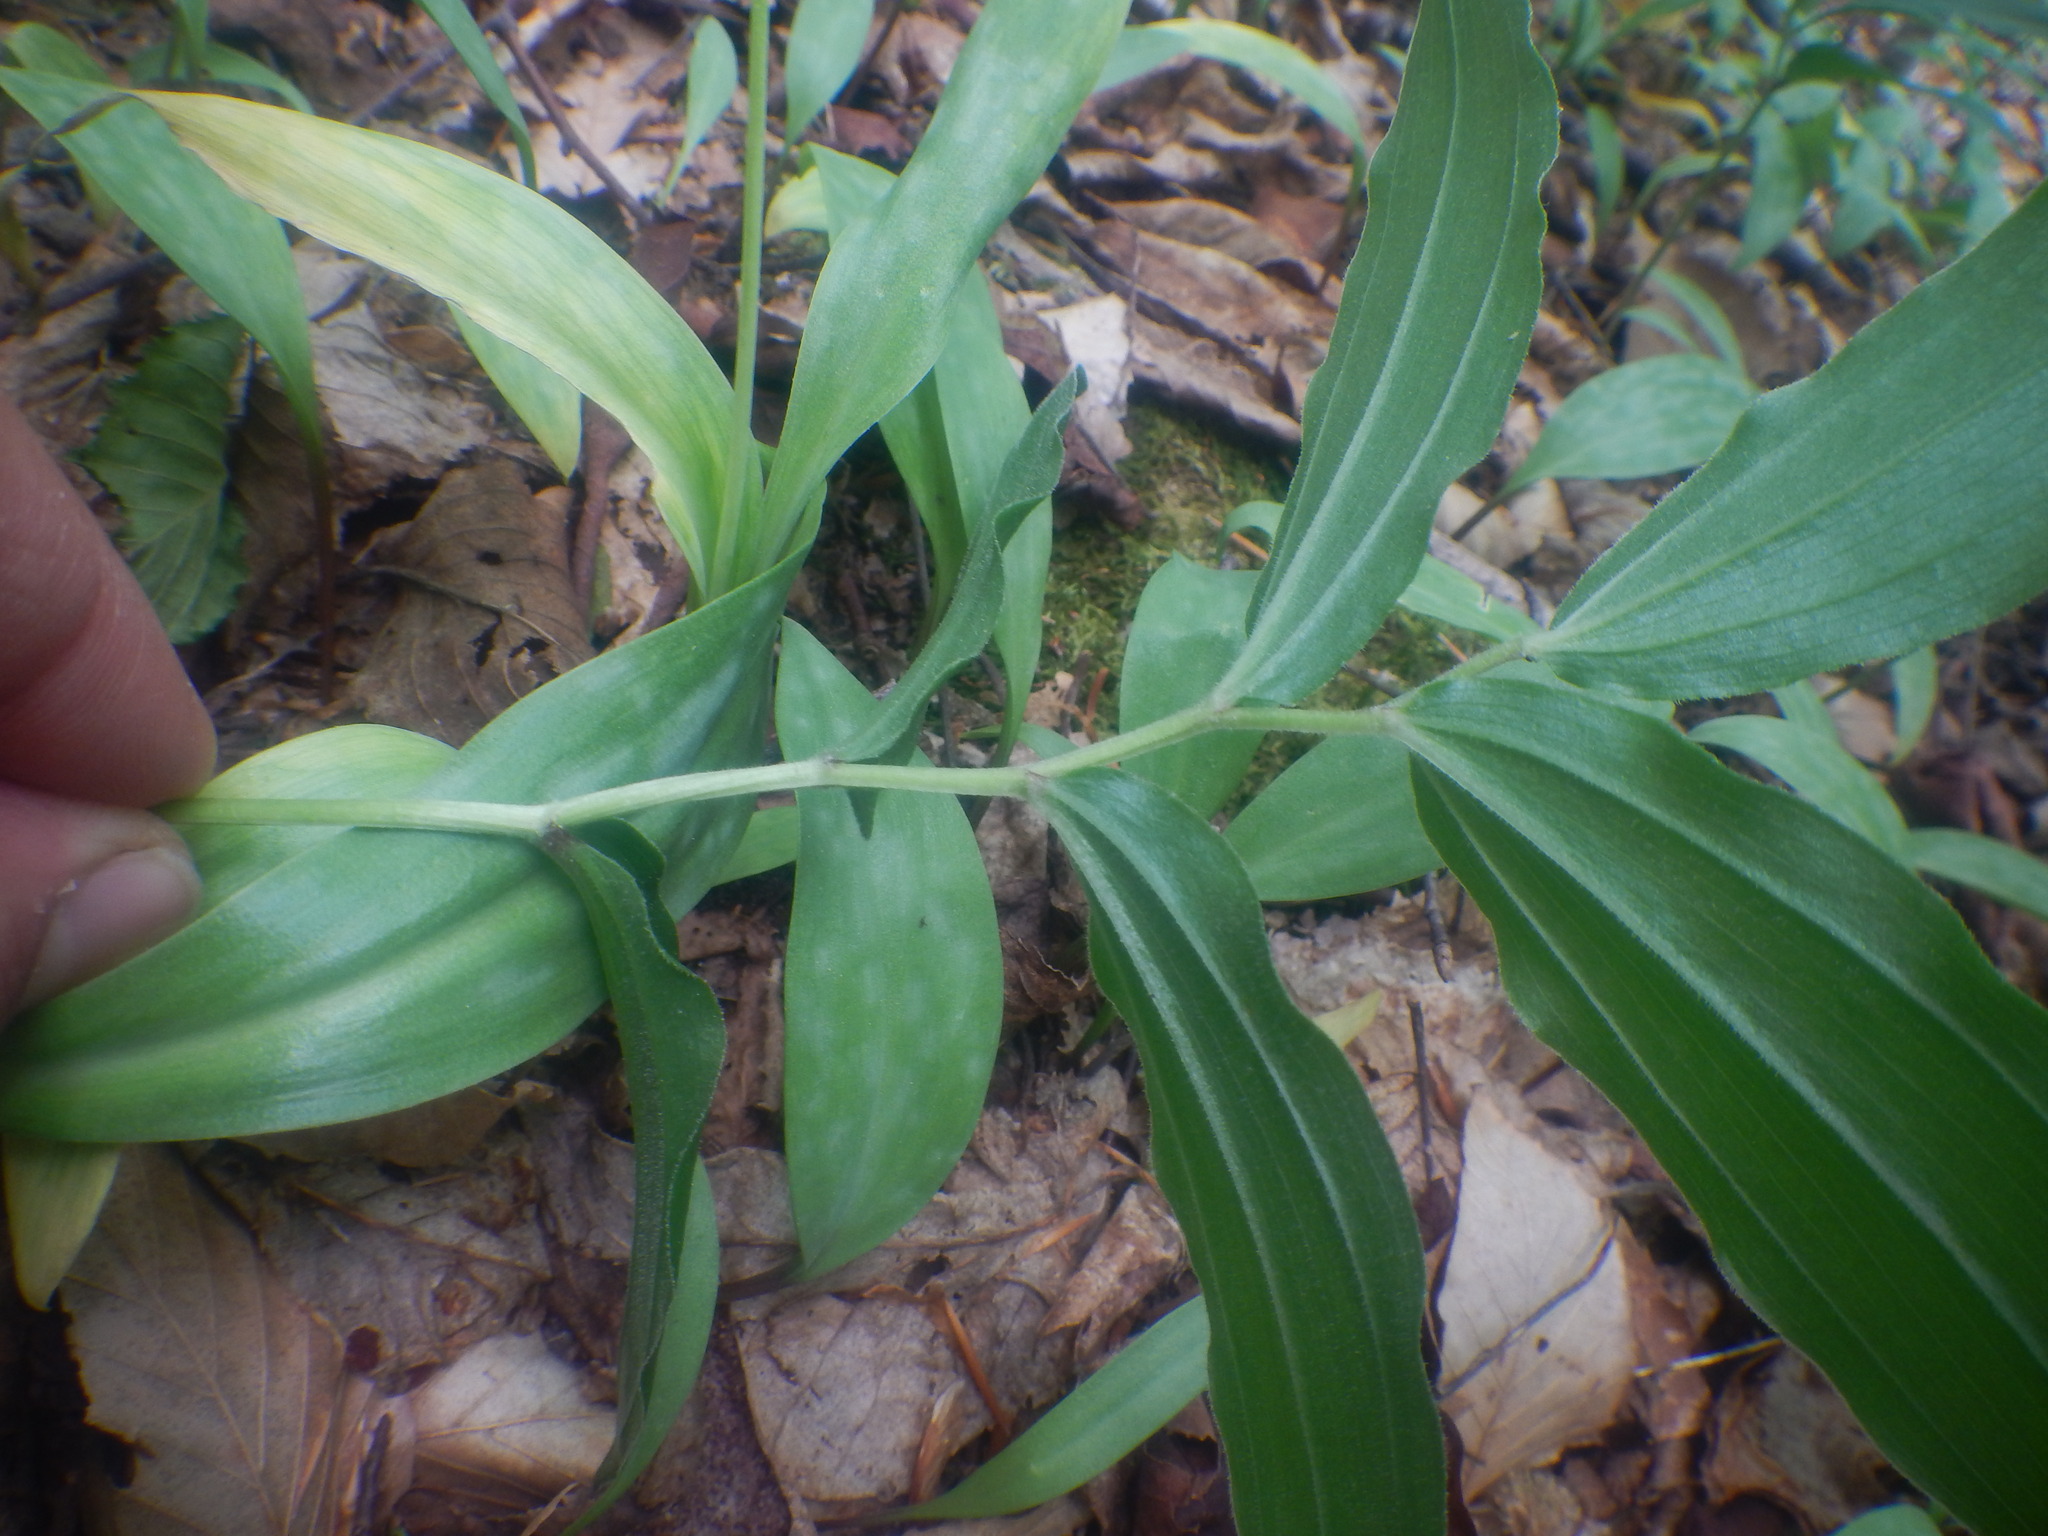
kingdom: Plantae
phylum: Tracheophyta
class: Liliopsida
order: Asparagales
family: Asparagaceae
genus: Maianthemum
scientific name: Maianthemum racemosum
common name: False spikenard
